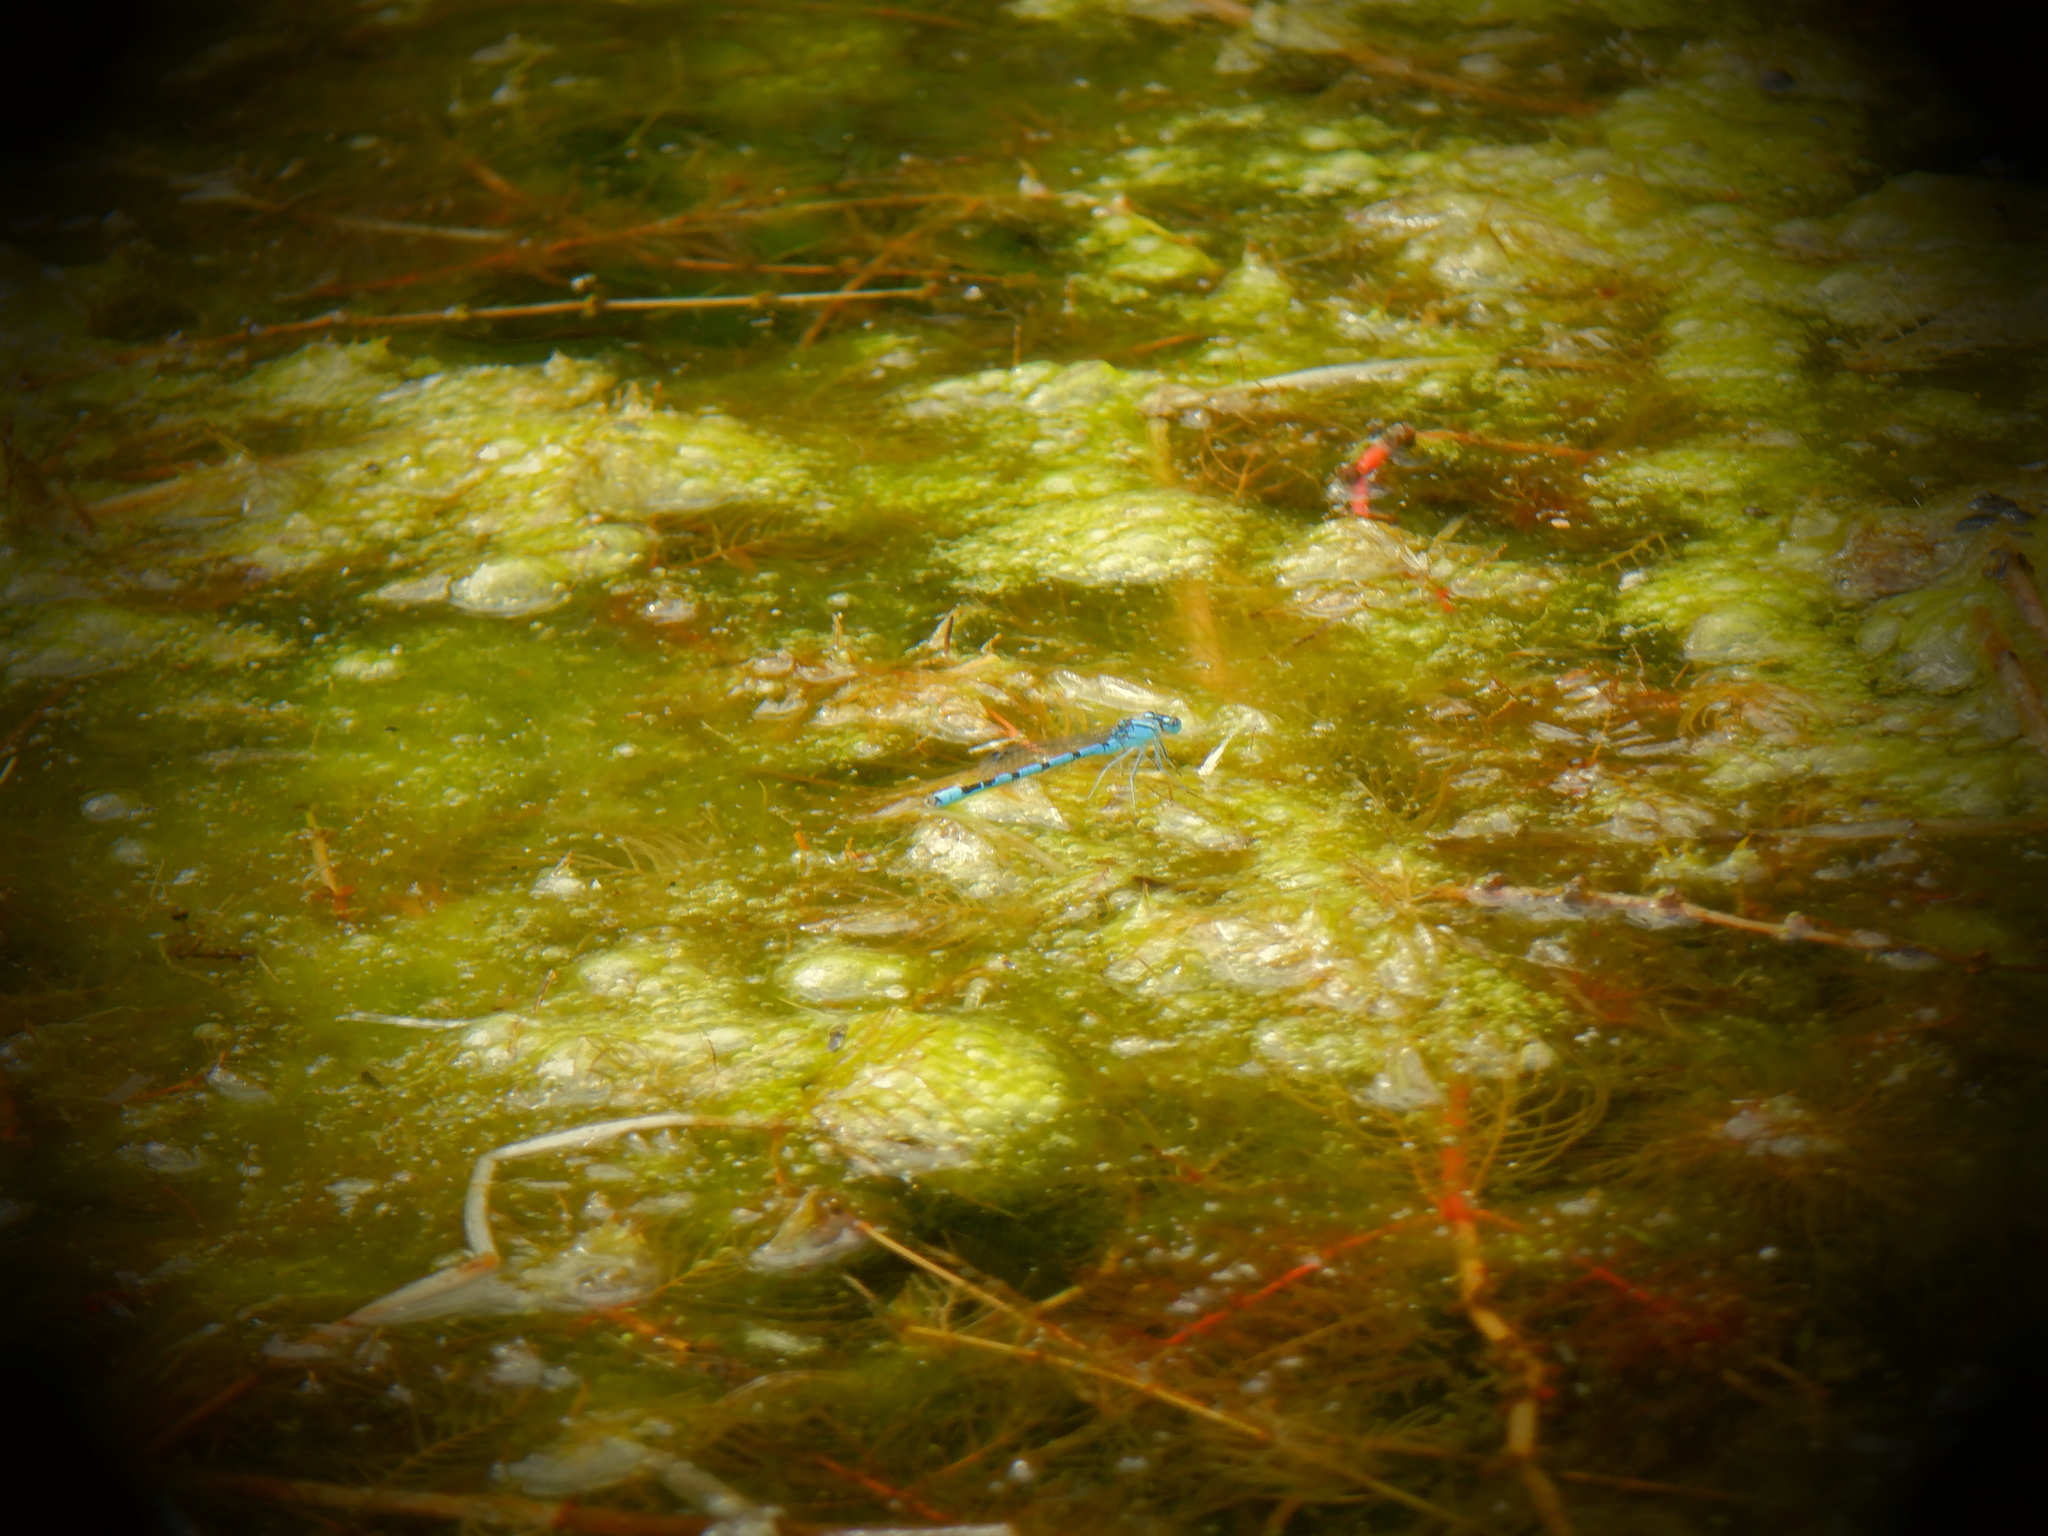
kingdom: Animalia
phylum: Arthropoda
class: Insecta
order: Odonata
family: Coenagrionidae
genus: Enallagma
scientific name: Enallagma
